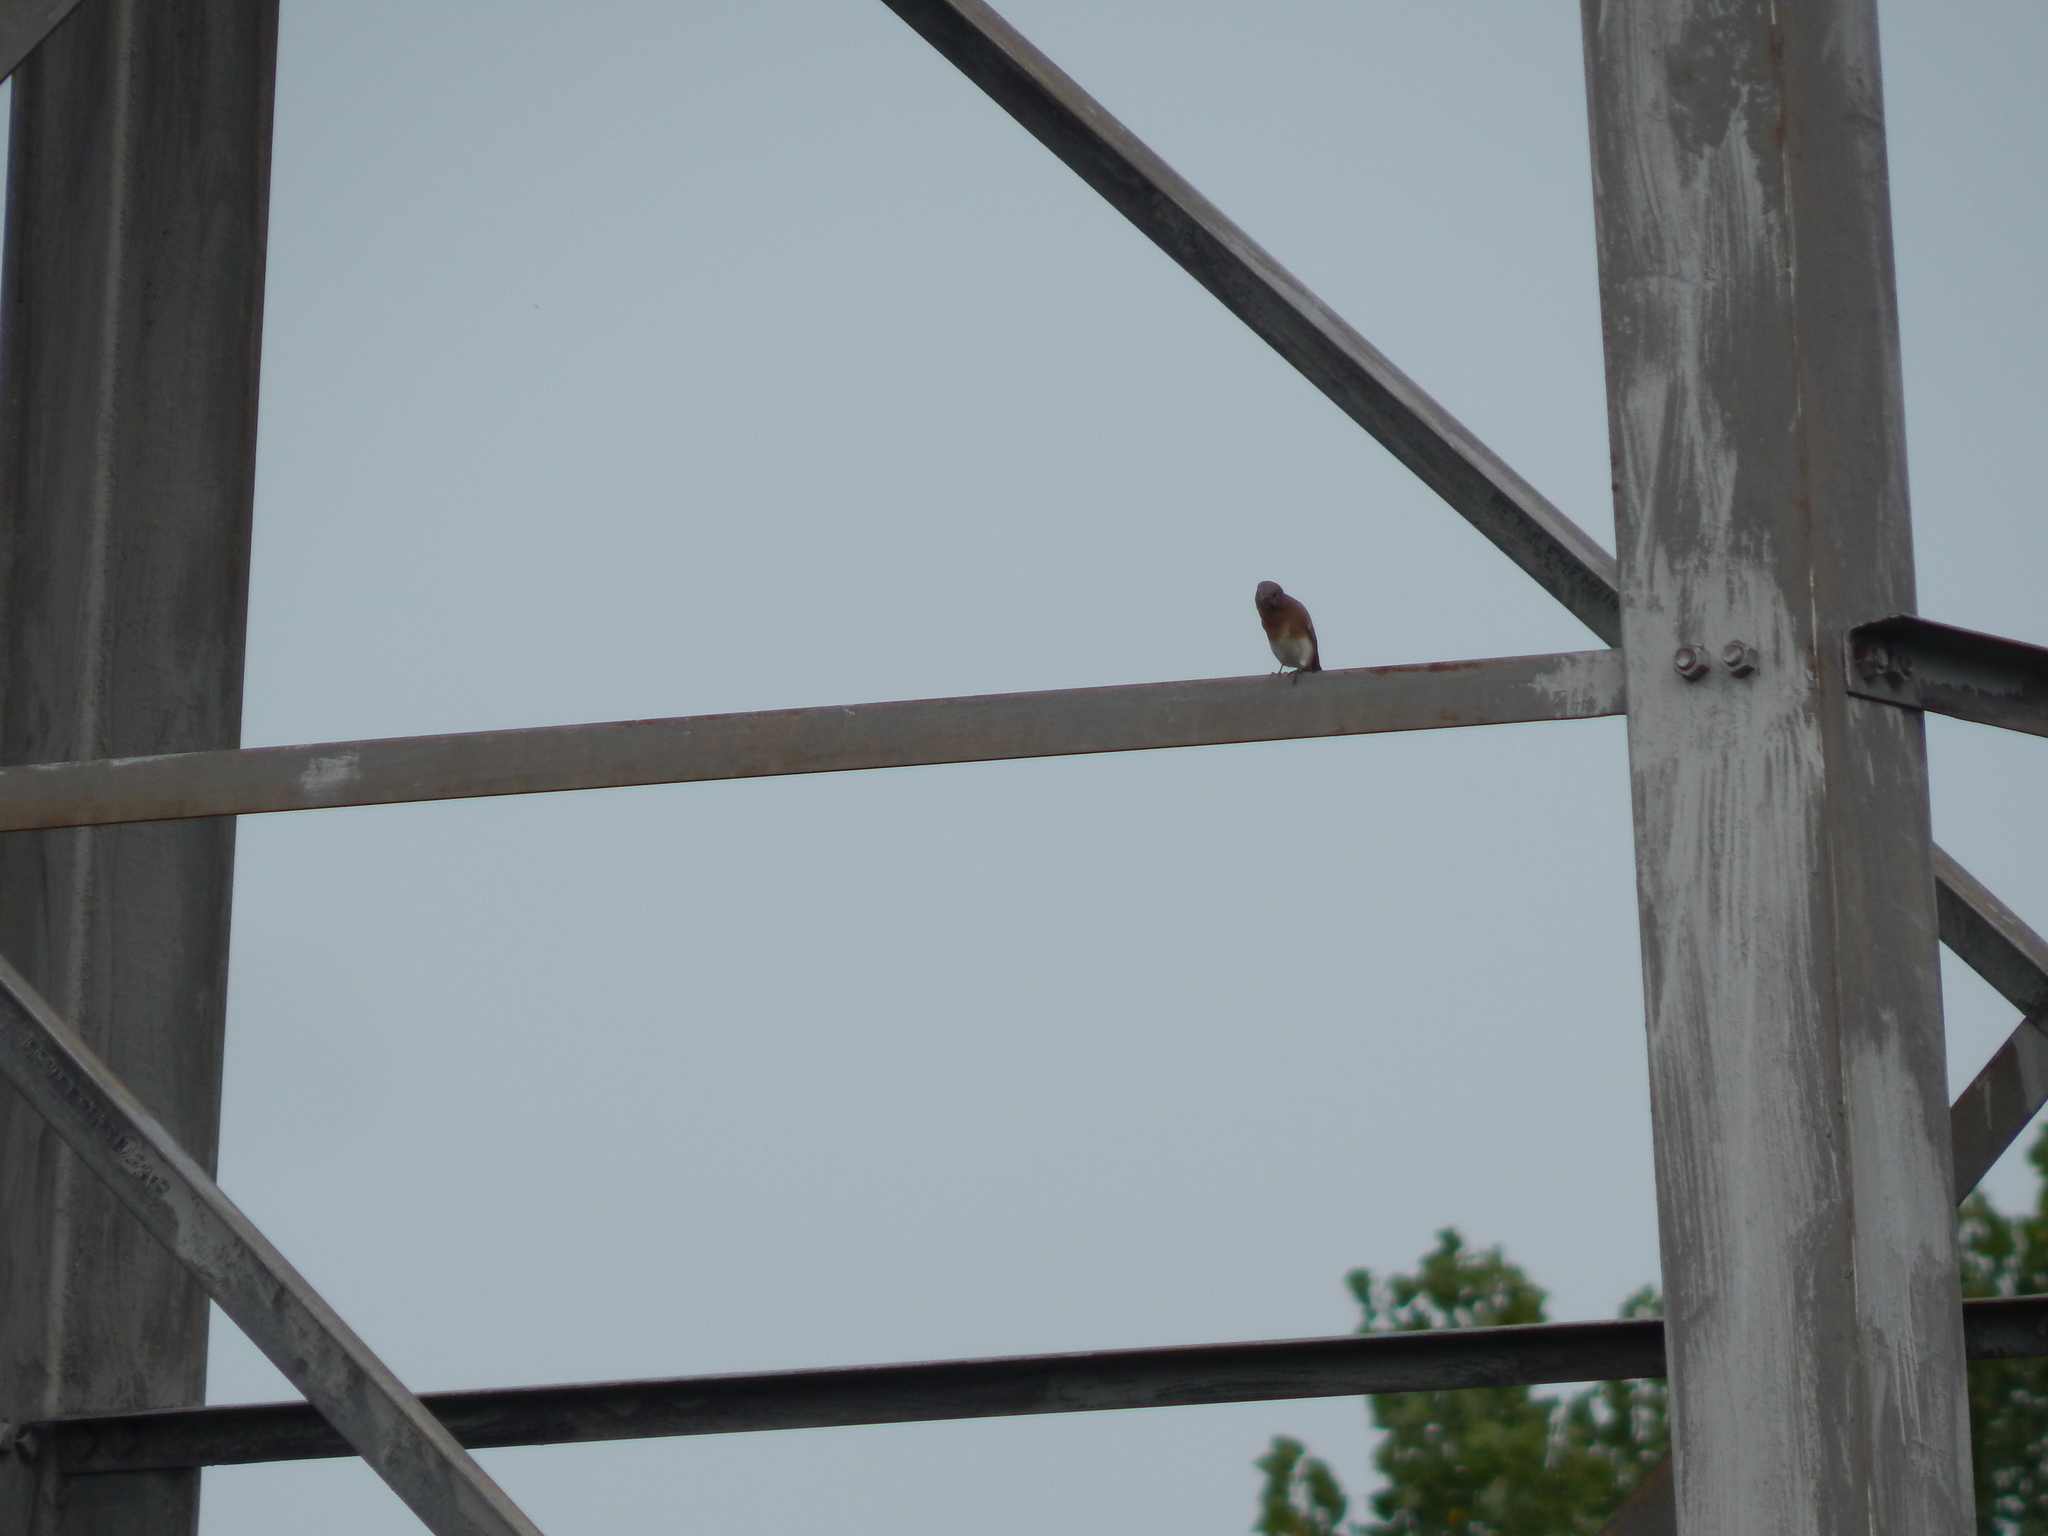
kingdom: Animalia
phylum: Chordata
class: Aves
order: Passeriformes
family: Turdidae
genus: Sialia
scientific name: Sialia sialis
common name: Eastern bluebird
